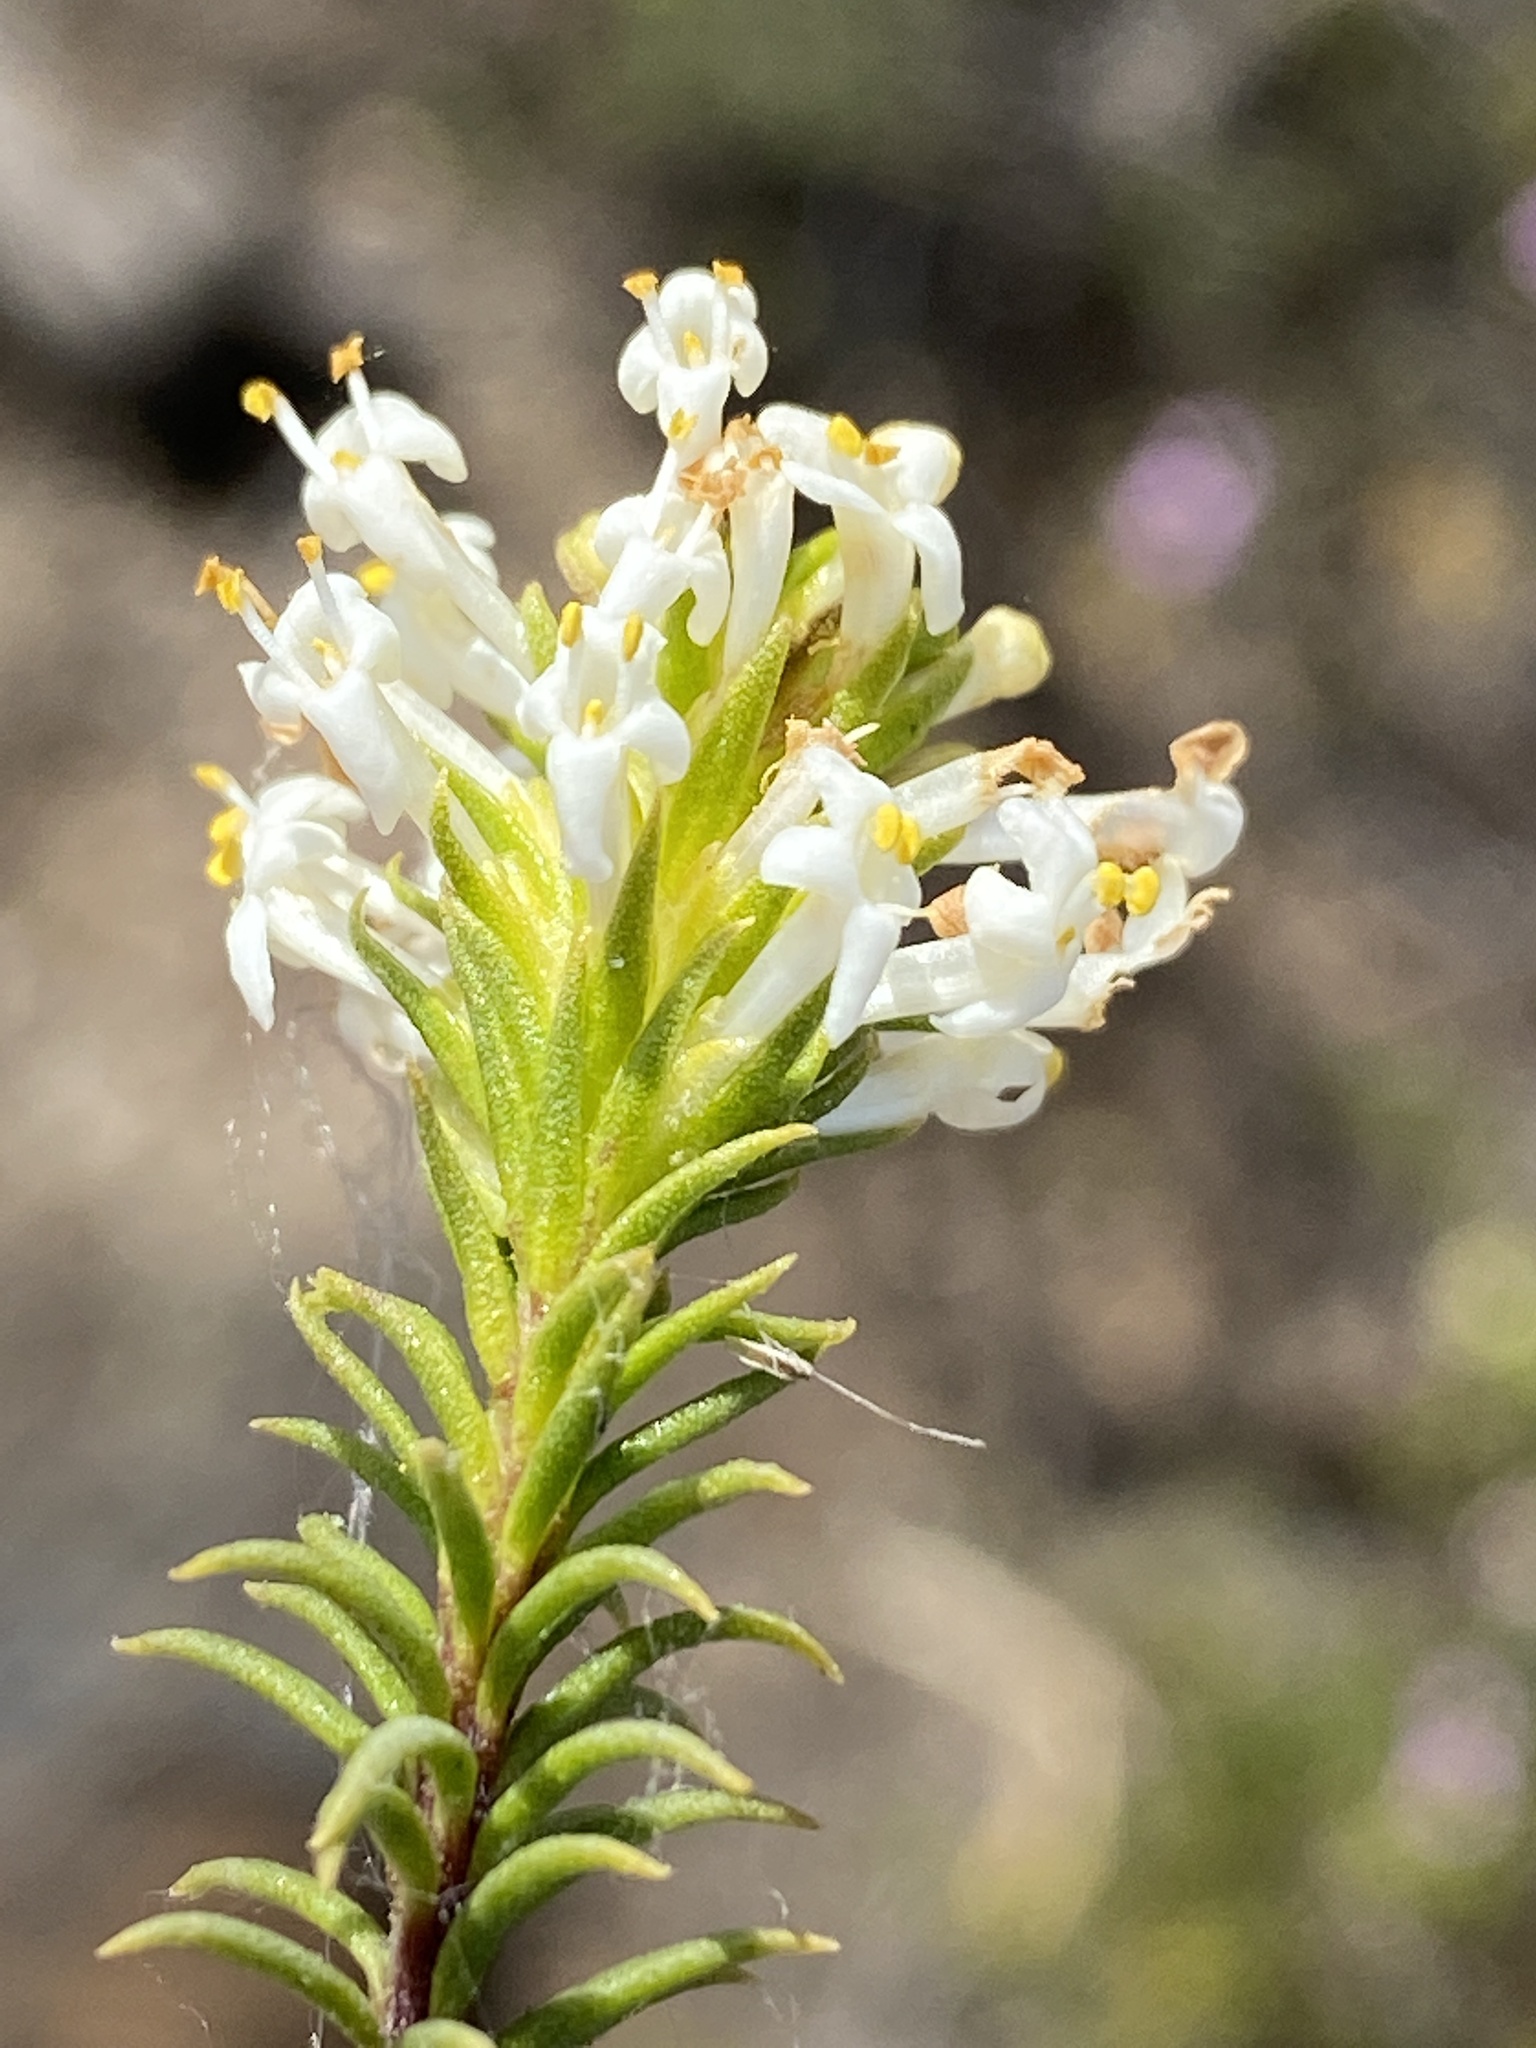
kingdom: Plantae
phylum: Tracheophyta
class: Magnoliopsida
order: Lamiales
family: Scrophulariaceae
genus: Selago
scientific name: Selago eckloniana
